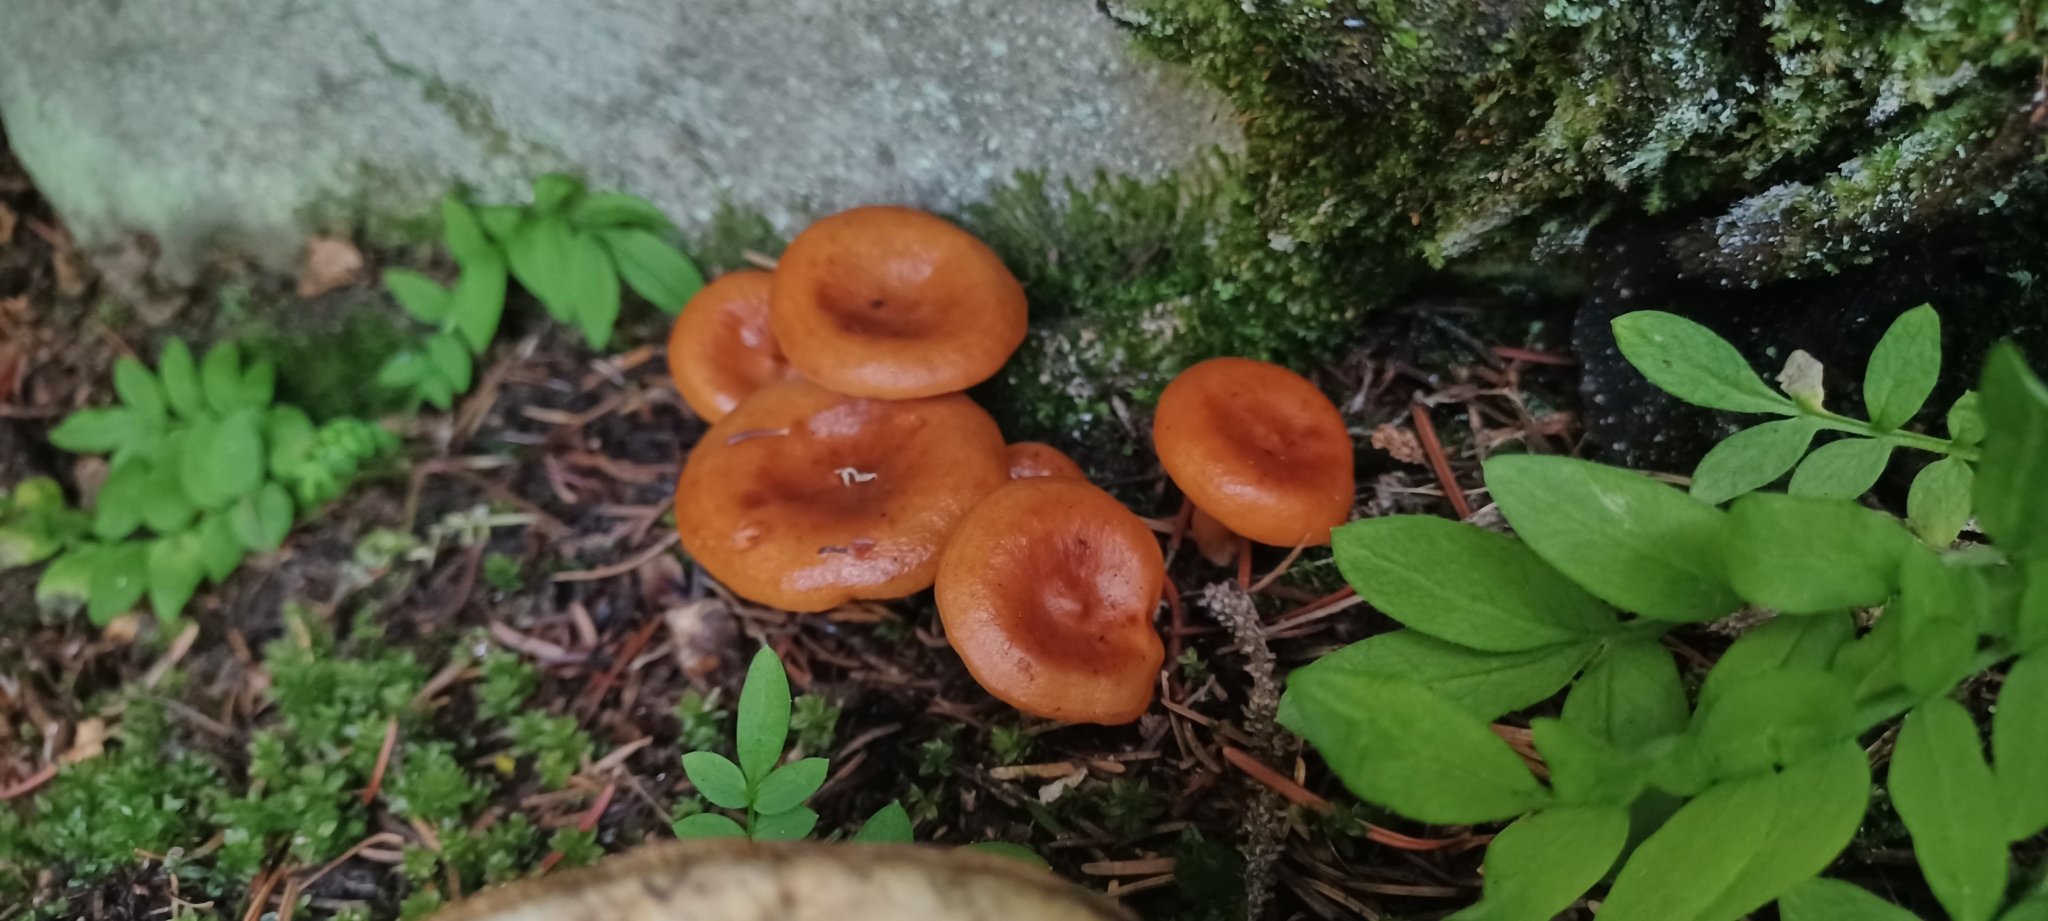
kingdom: Fungi
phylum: Basidiomycota
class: Agaricomycetes
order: Russulales
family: Russulaceae
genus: Lactarius
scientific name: Lactarius luculentus
